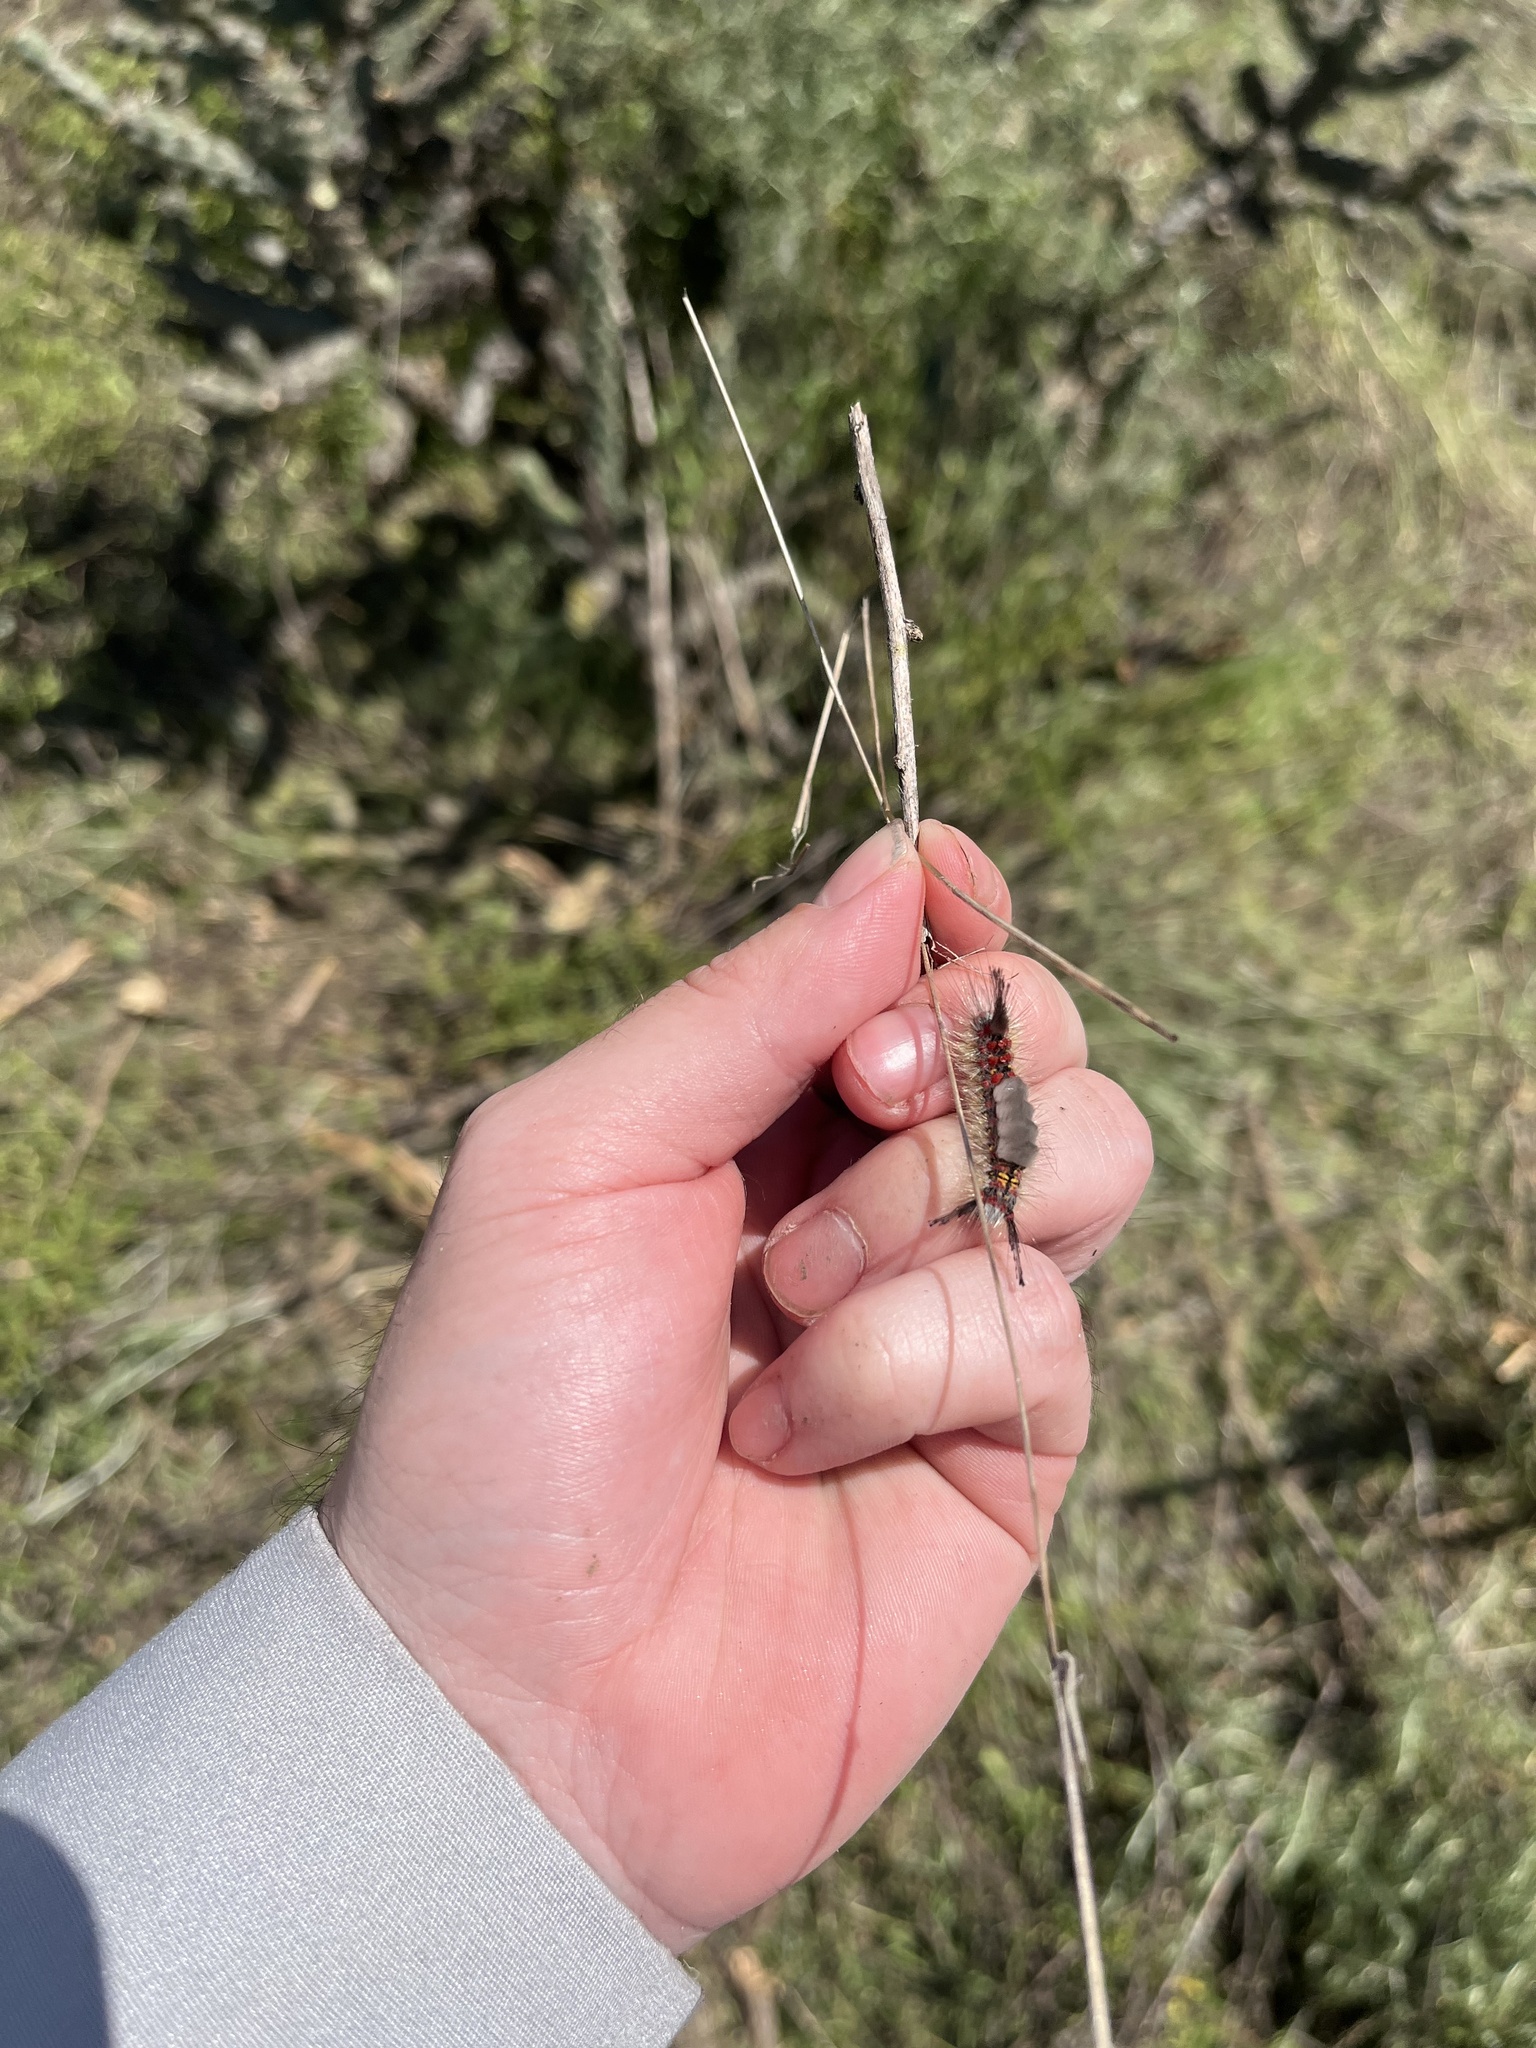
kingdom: Animalia
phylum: Arthropoda
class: Insecta
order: Lepidoptera
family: Erebidae
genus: Orgyia
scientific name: Orgyia vetusta
